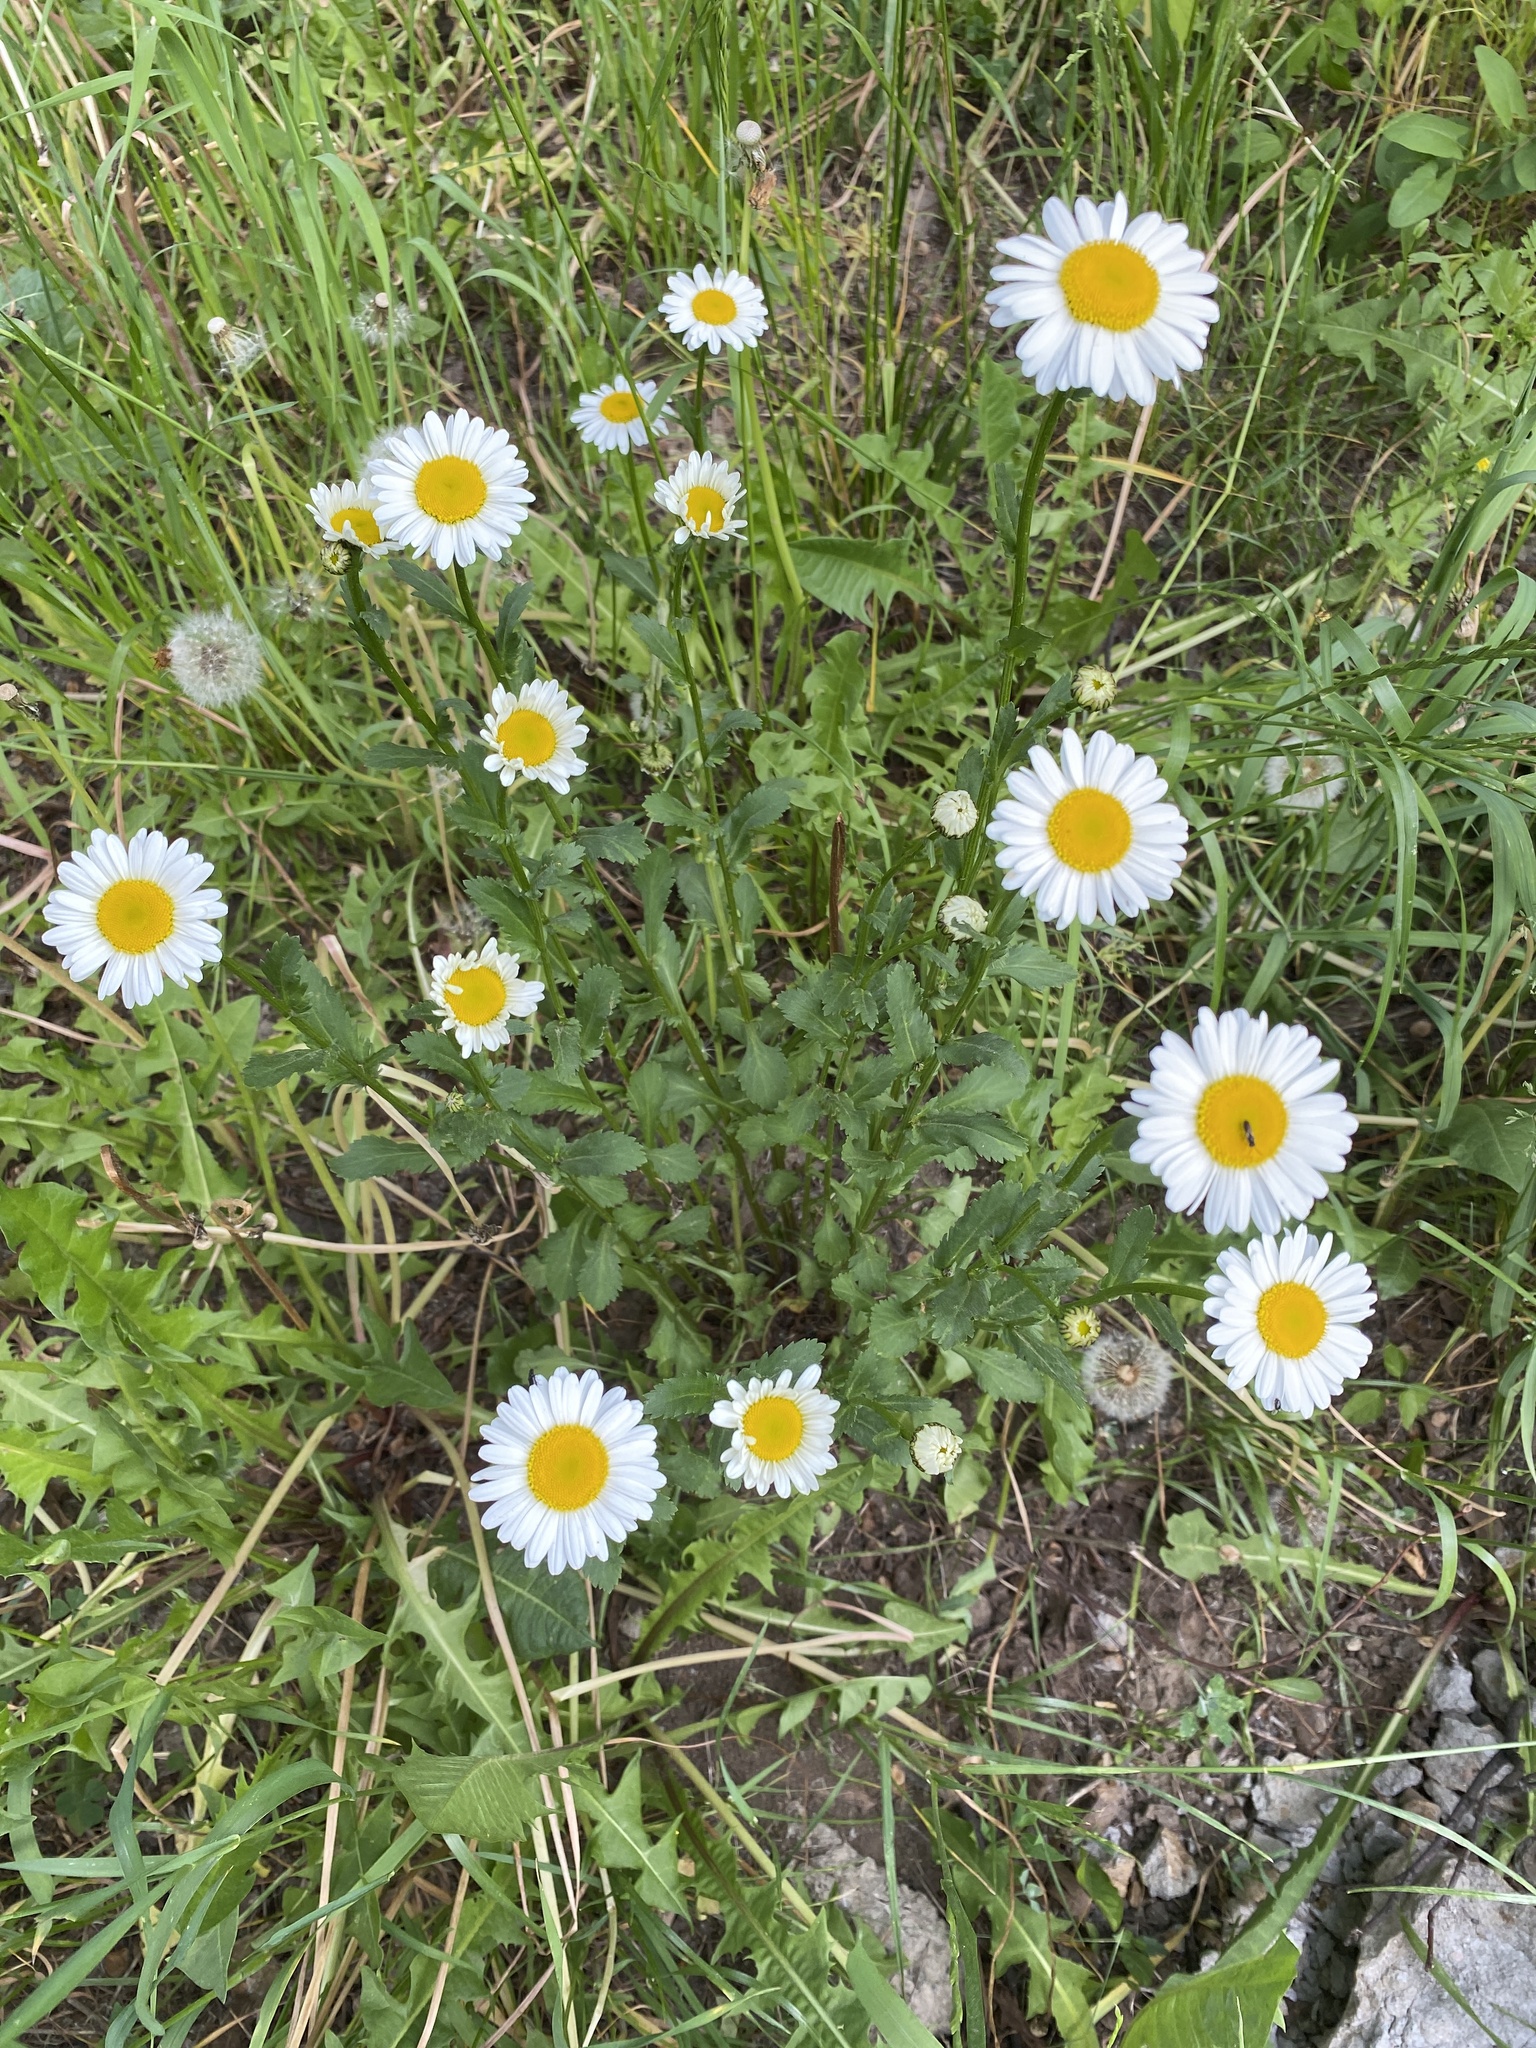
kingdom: Plantae
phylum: Tracheophyta
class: Magnoliopsida
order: Asterales
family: Asteraceae
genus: Leucanthemum
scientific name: Leucanthemum vulgare
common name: Oxeye daisy
